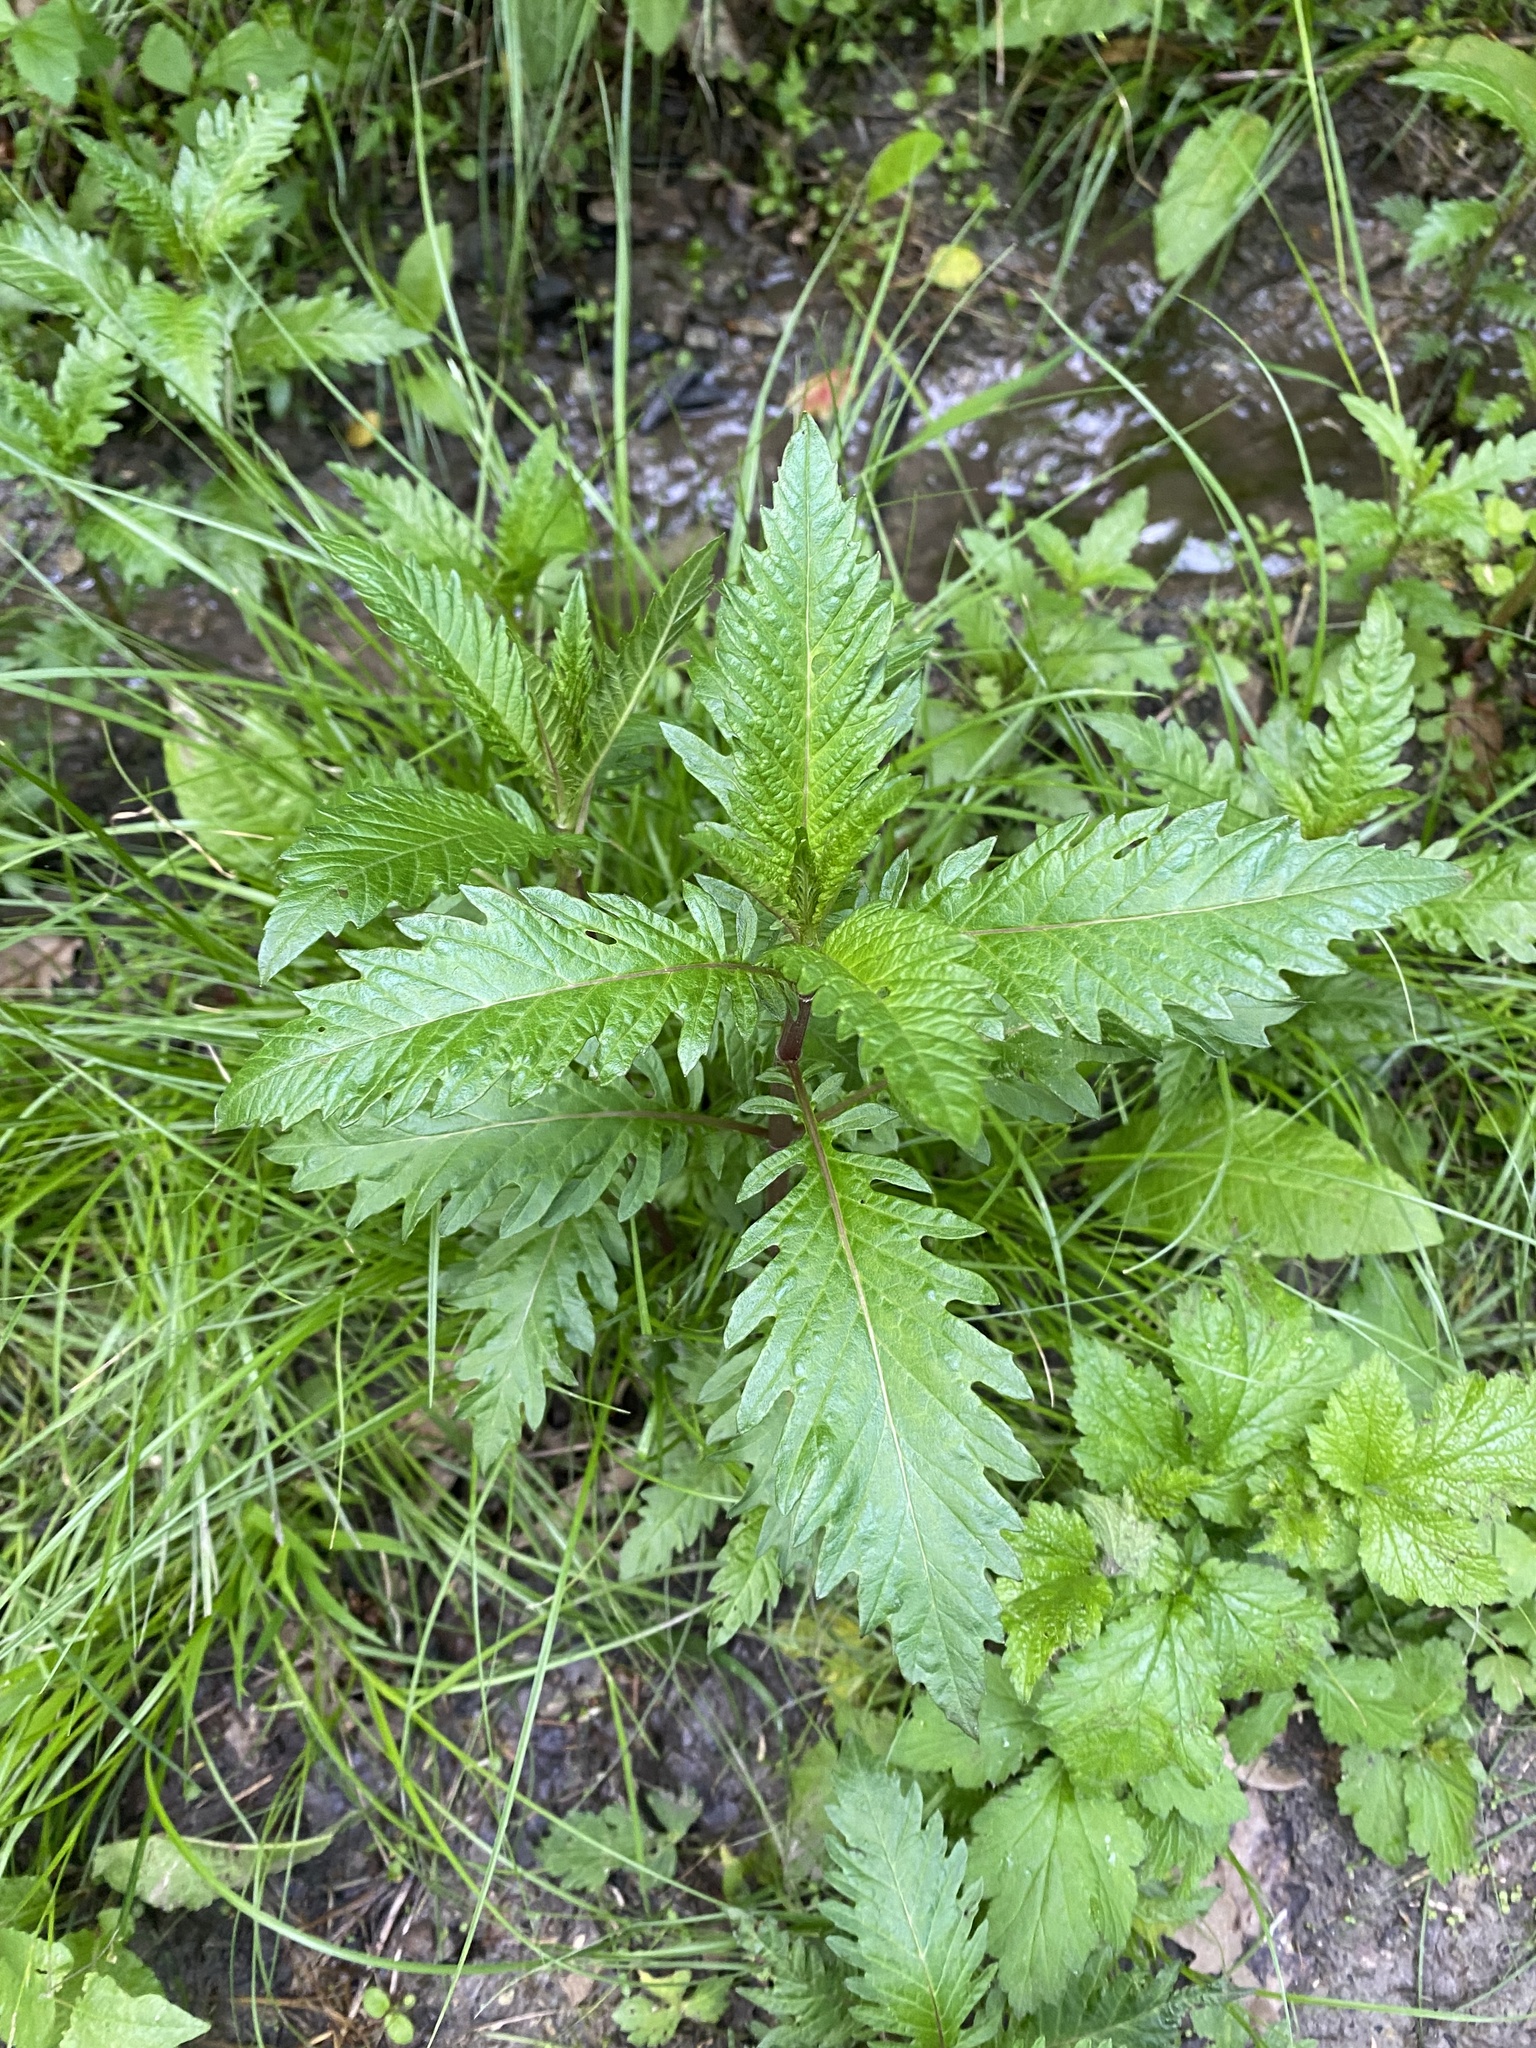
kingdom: Plantae
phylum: Tracheophyta
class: Magnoliopsida
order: Lamiales
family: Lamiaceae
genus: Lycopus
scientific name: Lycopus europaeus
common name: European bugleweed
